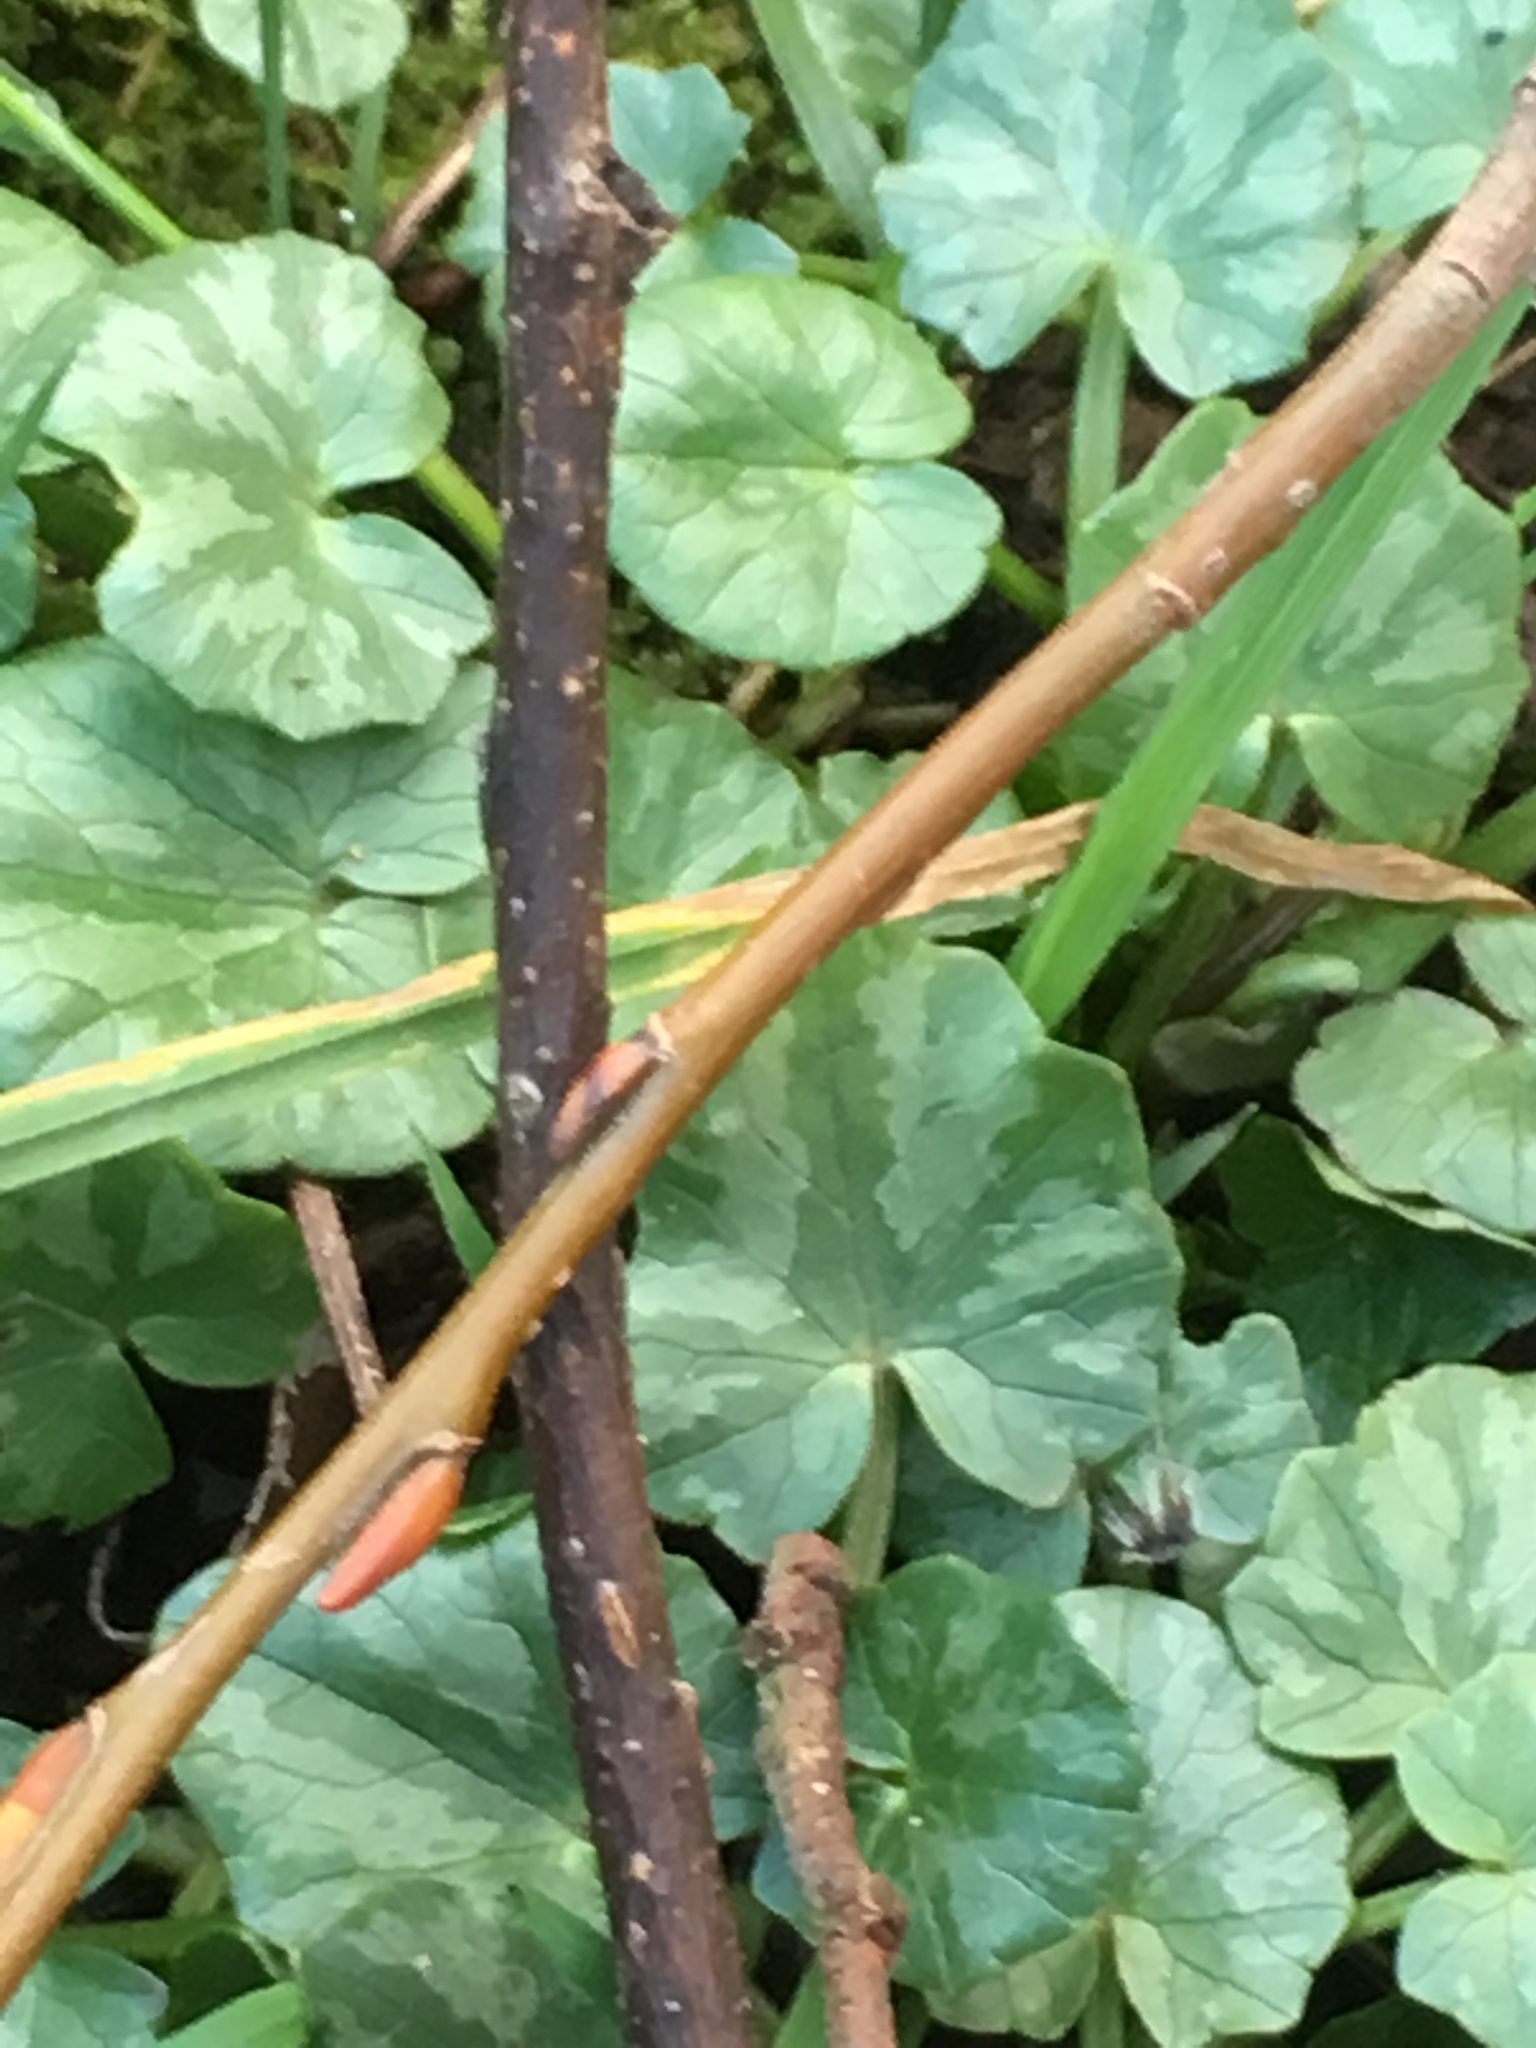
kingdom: Plantae
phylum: Tracheophyta
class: Magnoliopsida
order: Ranunculales
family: Ranunculaceae
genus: Ficaria
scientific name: Ficaria verna
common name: Lesser celandine
